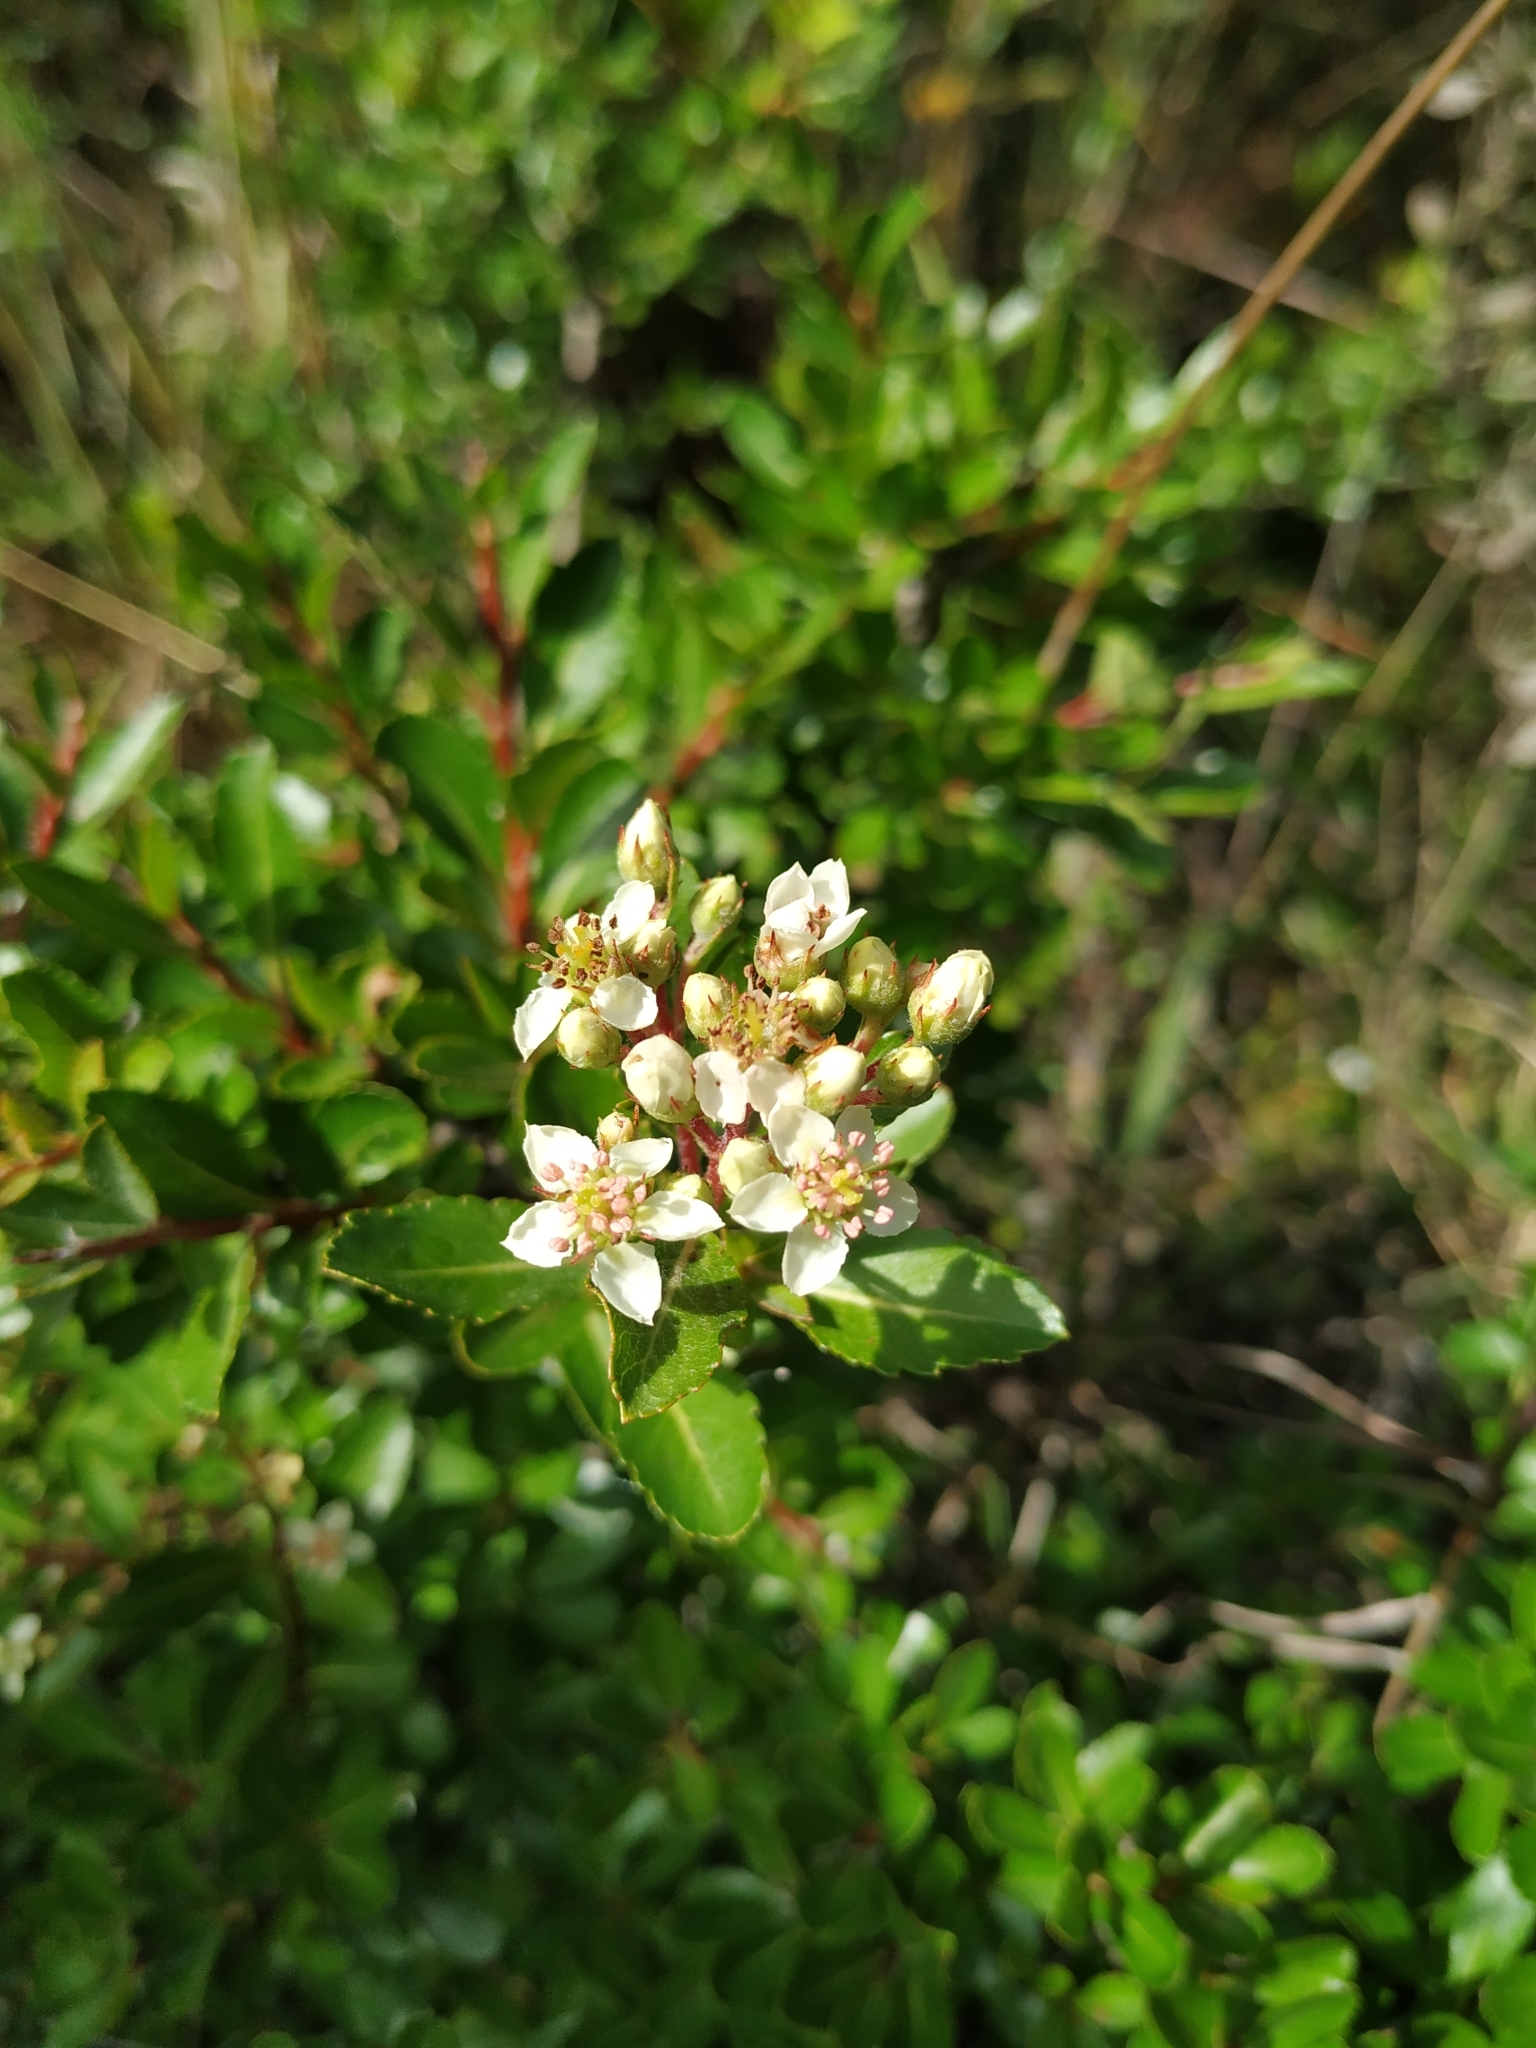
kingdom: Plantae
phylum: Tracheophyta
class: Magnoliopsida
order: Rosales
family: Rosaceae
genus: Hesperomeles
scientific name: Hesperomeles obtusifolia
